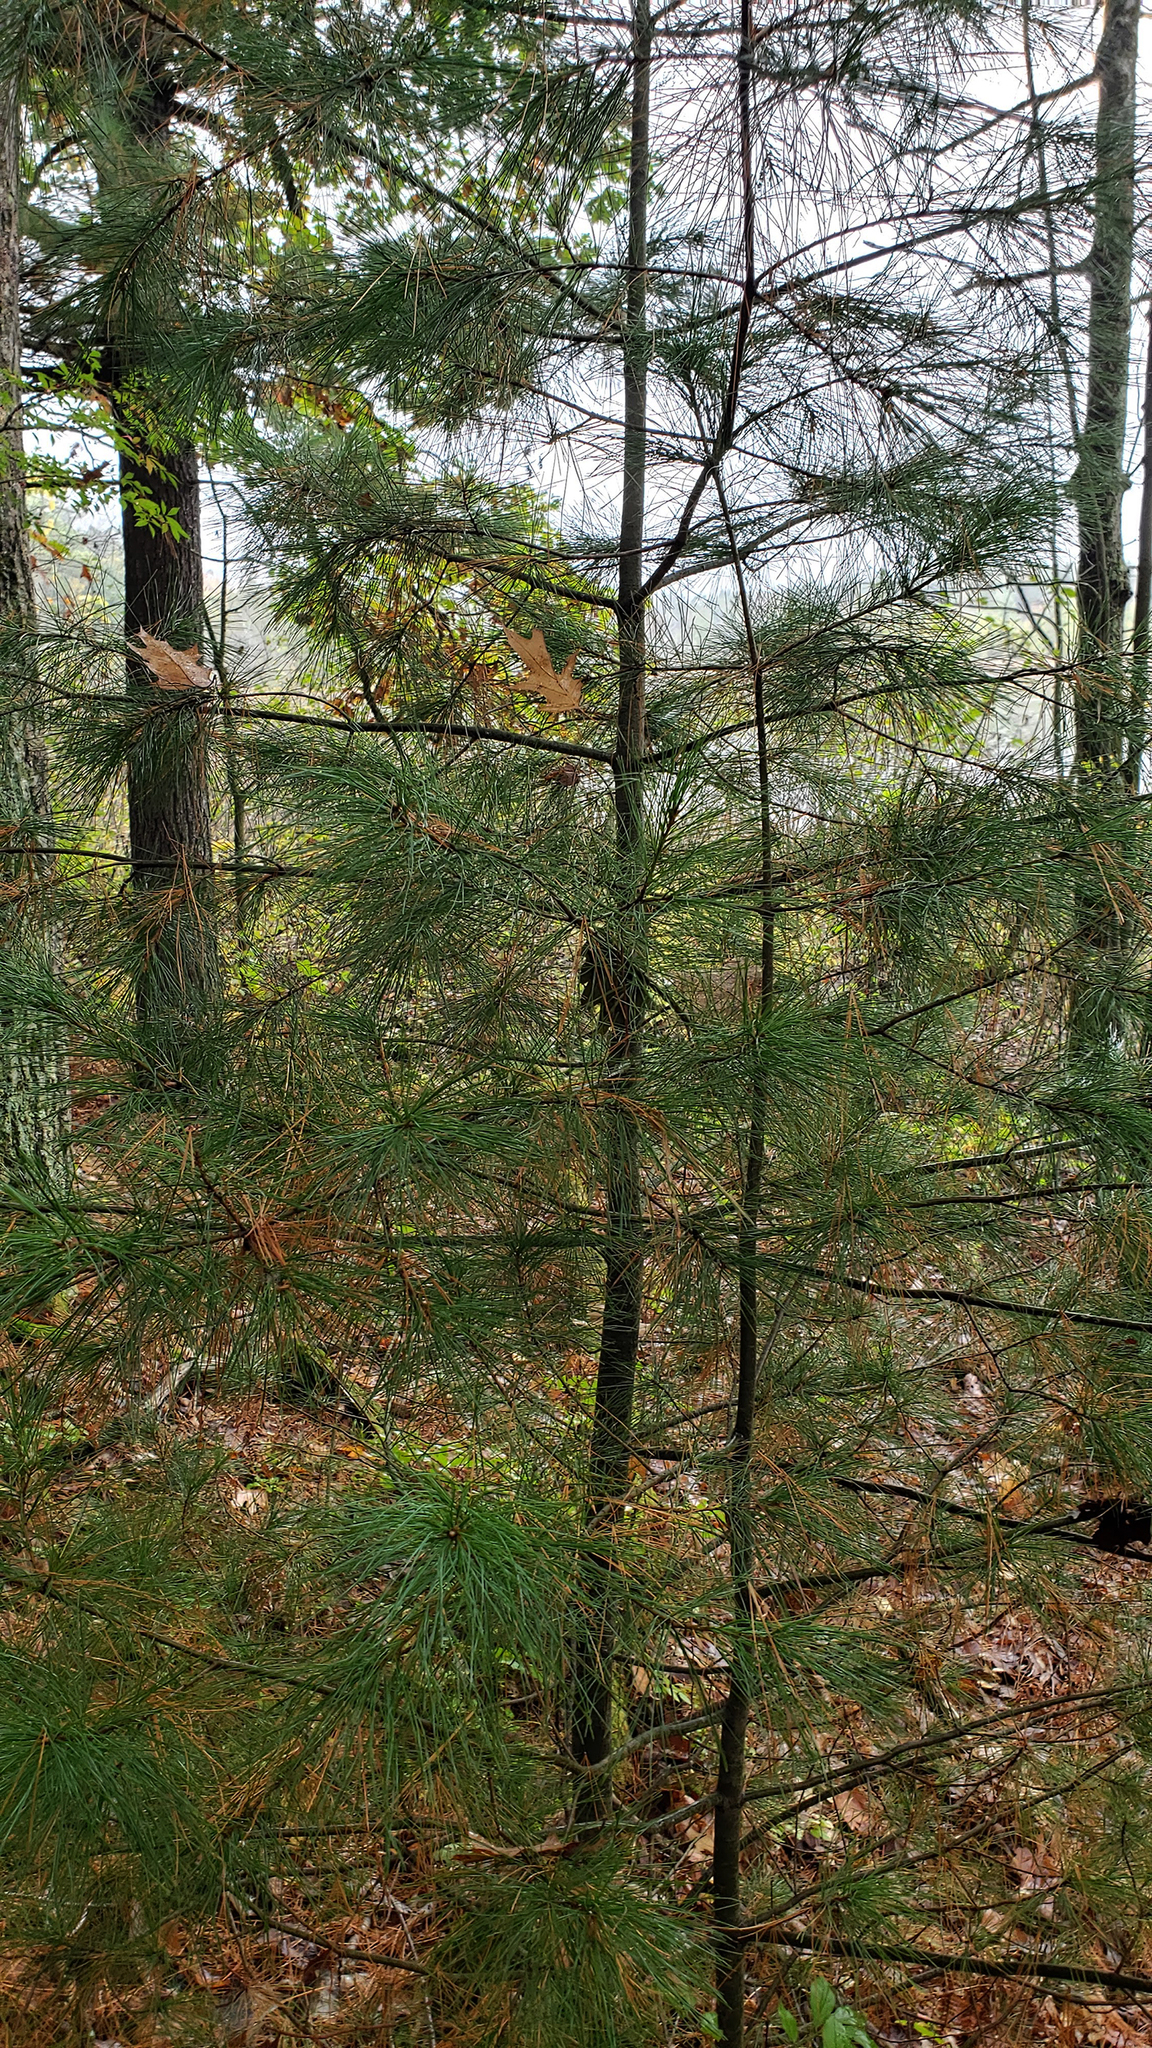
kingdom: Plantae
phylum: Tracheophyta
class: Pinopsida
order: Pinales
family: Pinaceae
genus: Pinus
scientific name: Pinus strobus
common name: Weymouth pine
